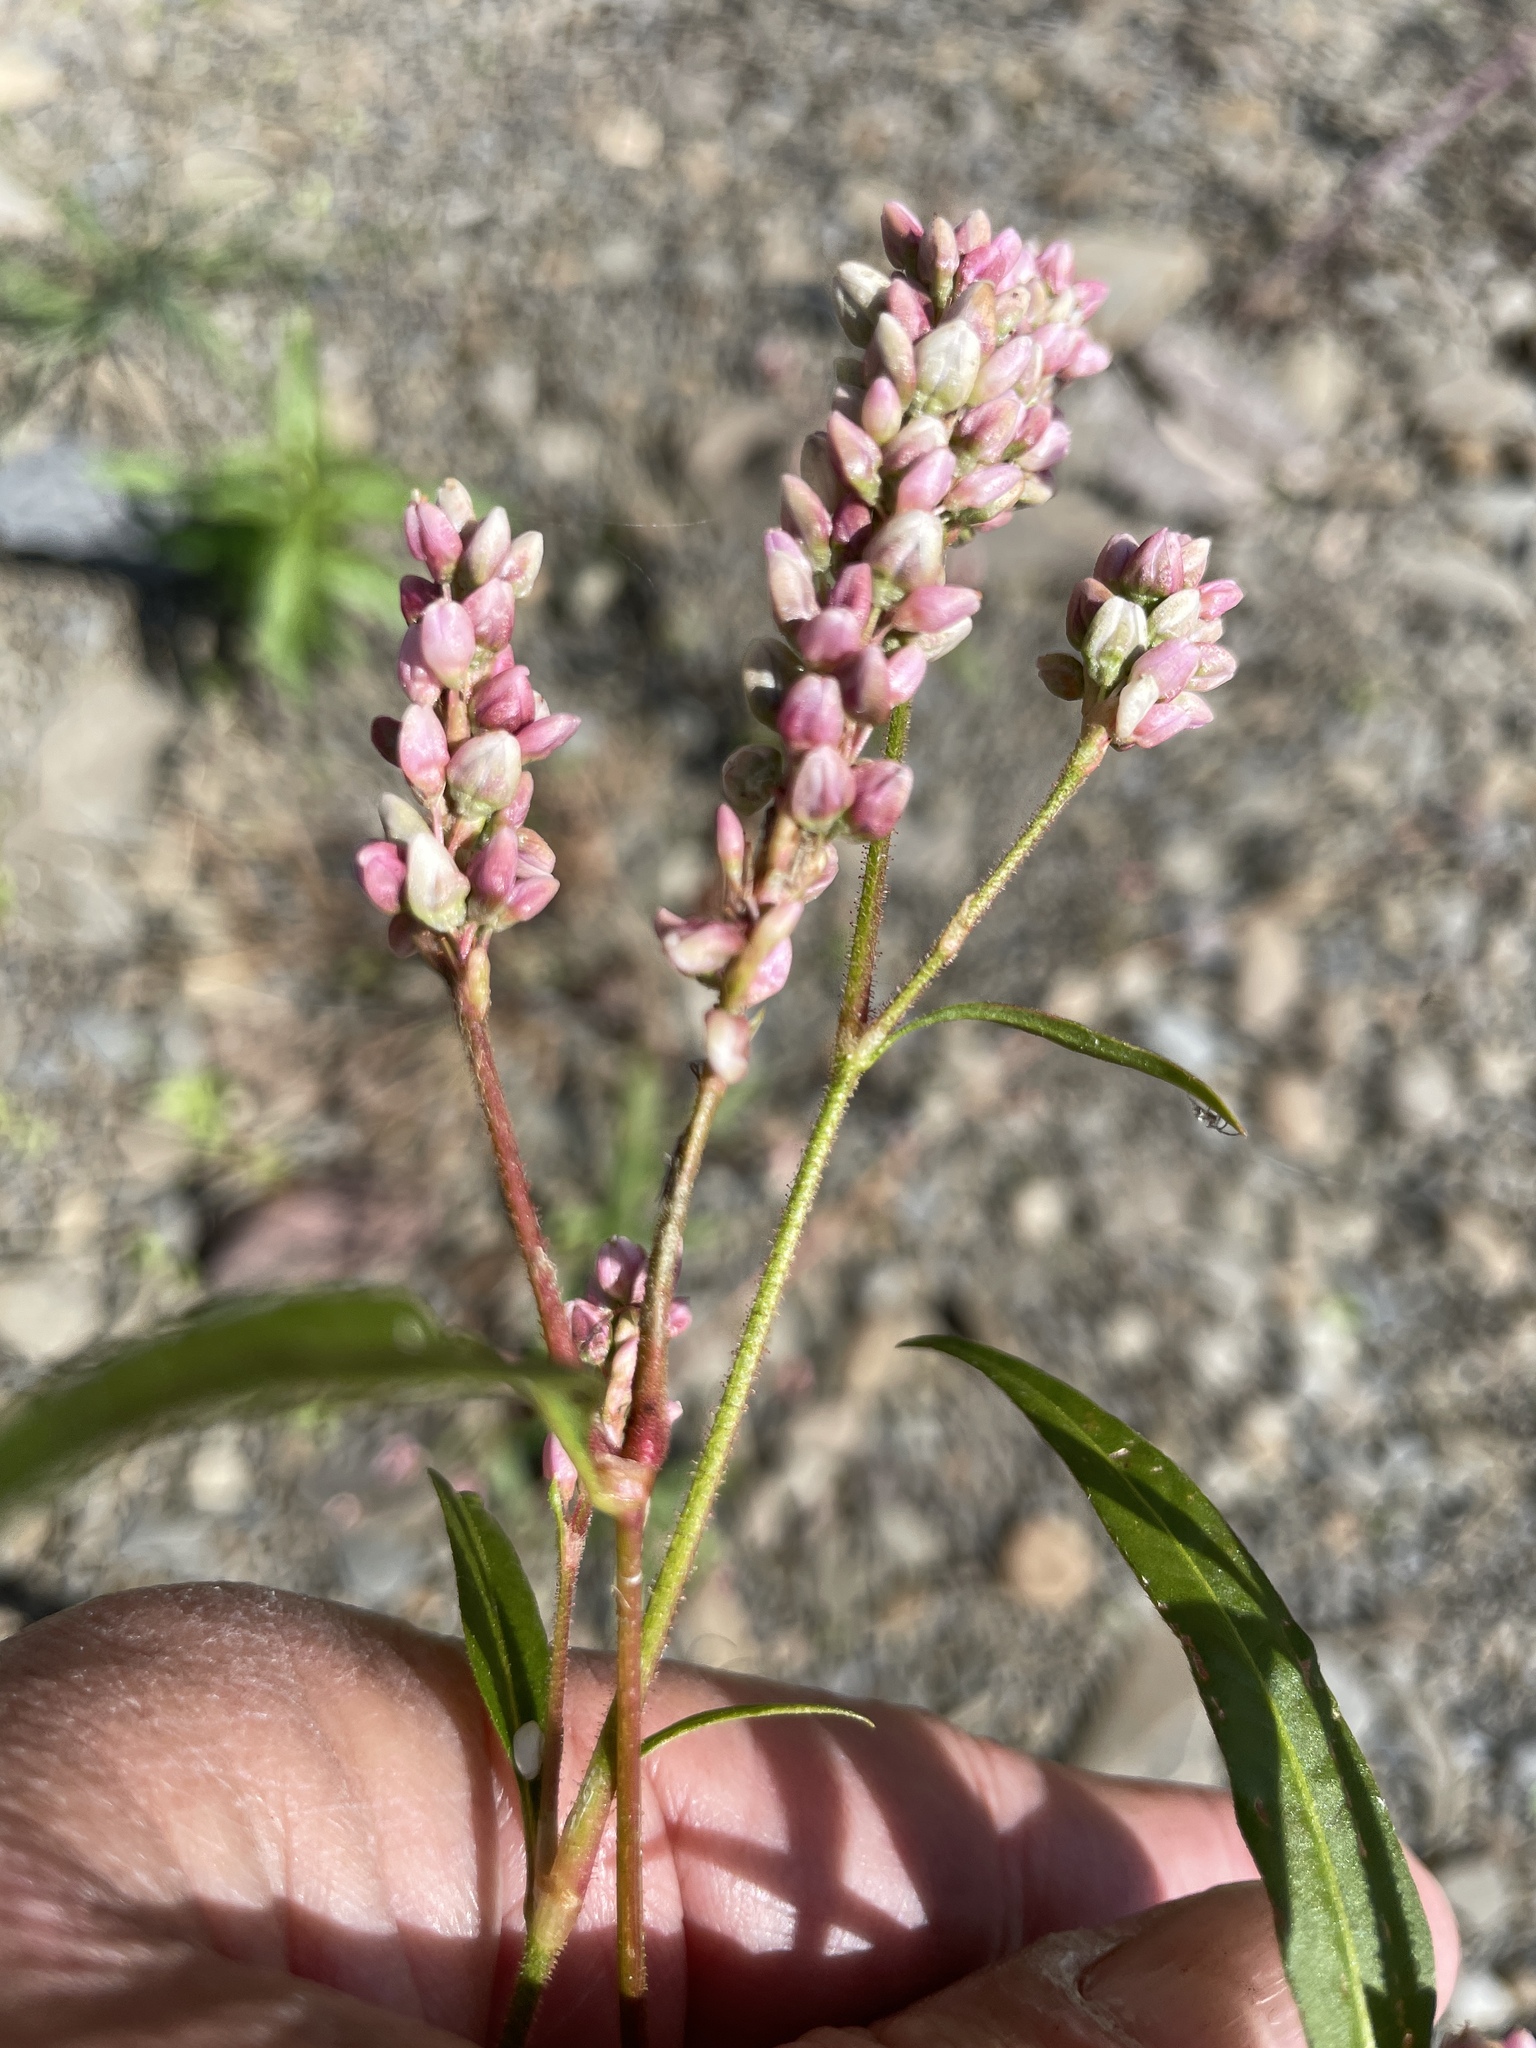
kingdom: Plantae
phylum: Tracheophyta
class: Magnoliopsida
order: Caryophyllales
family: Polygonaceae
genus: Persicaria
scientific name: Persicaria pensylvanica
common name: Pinkweed
